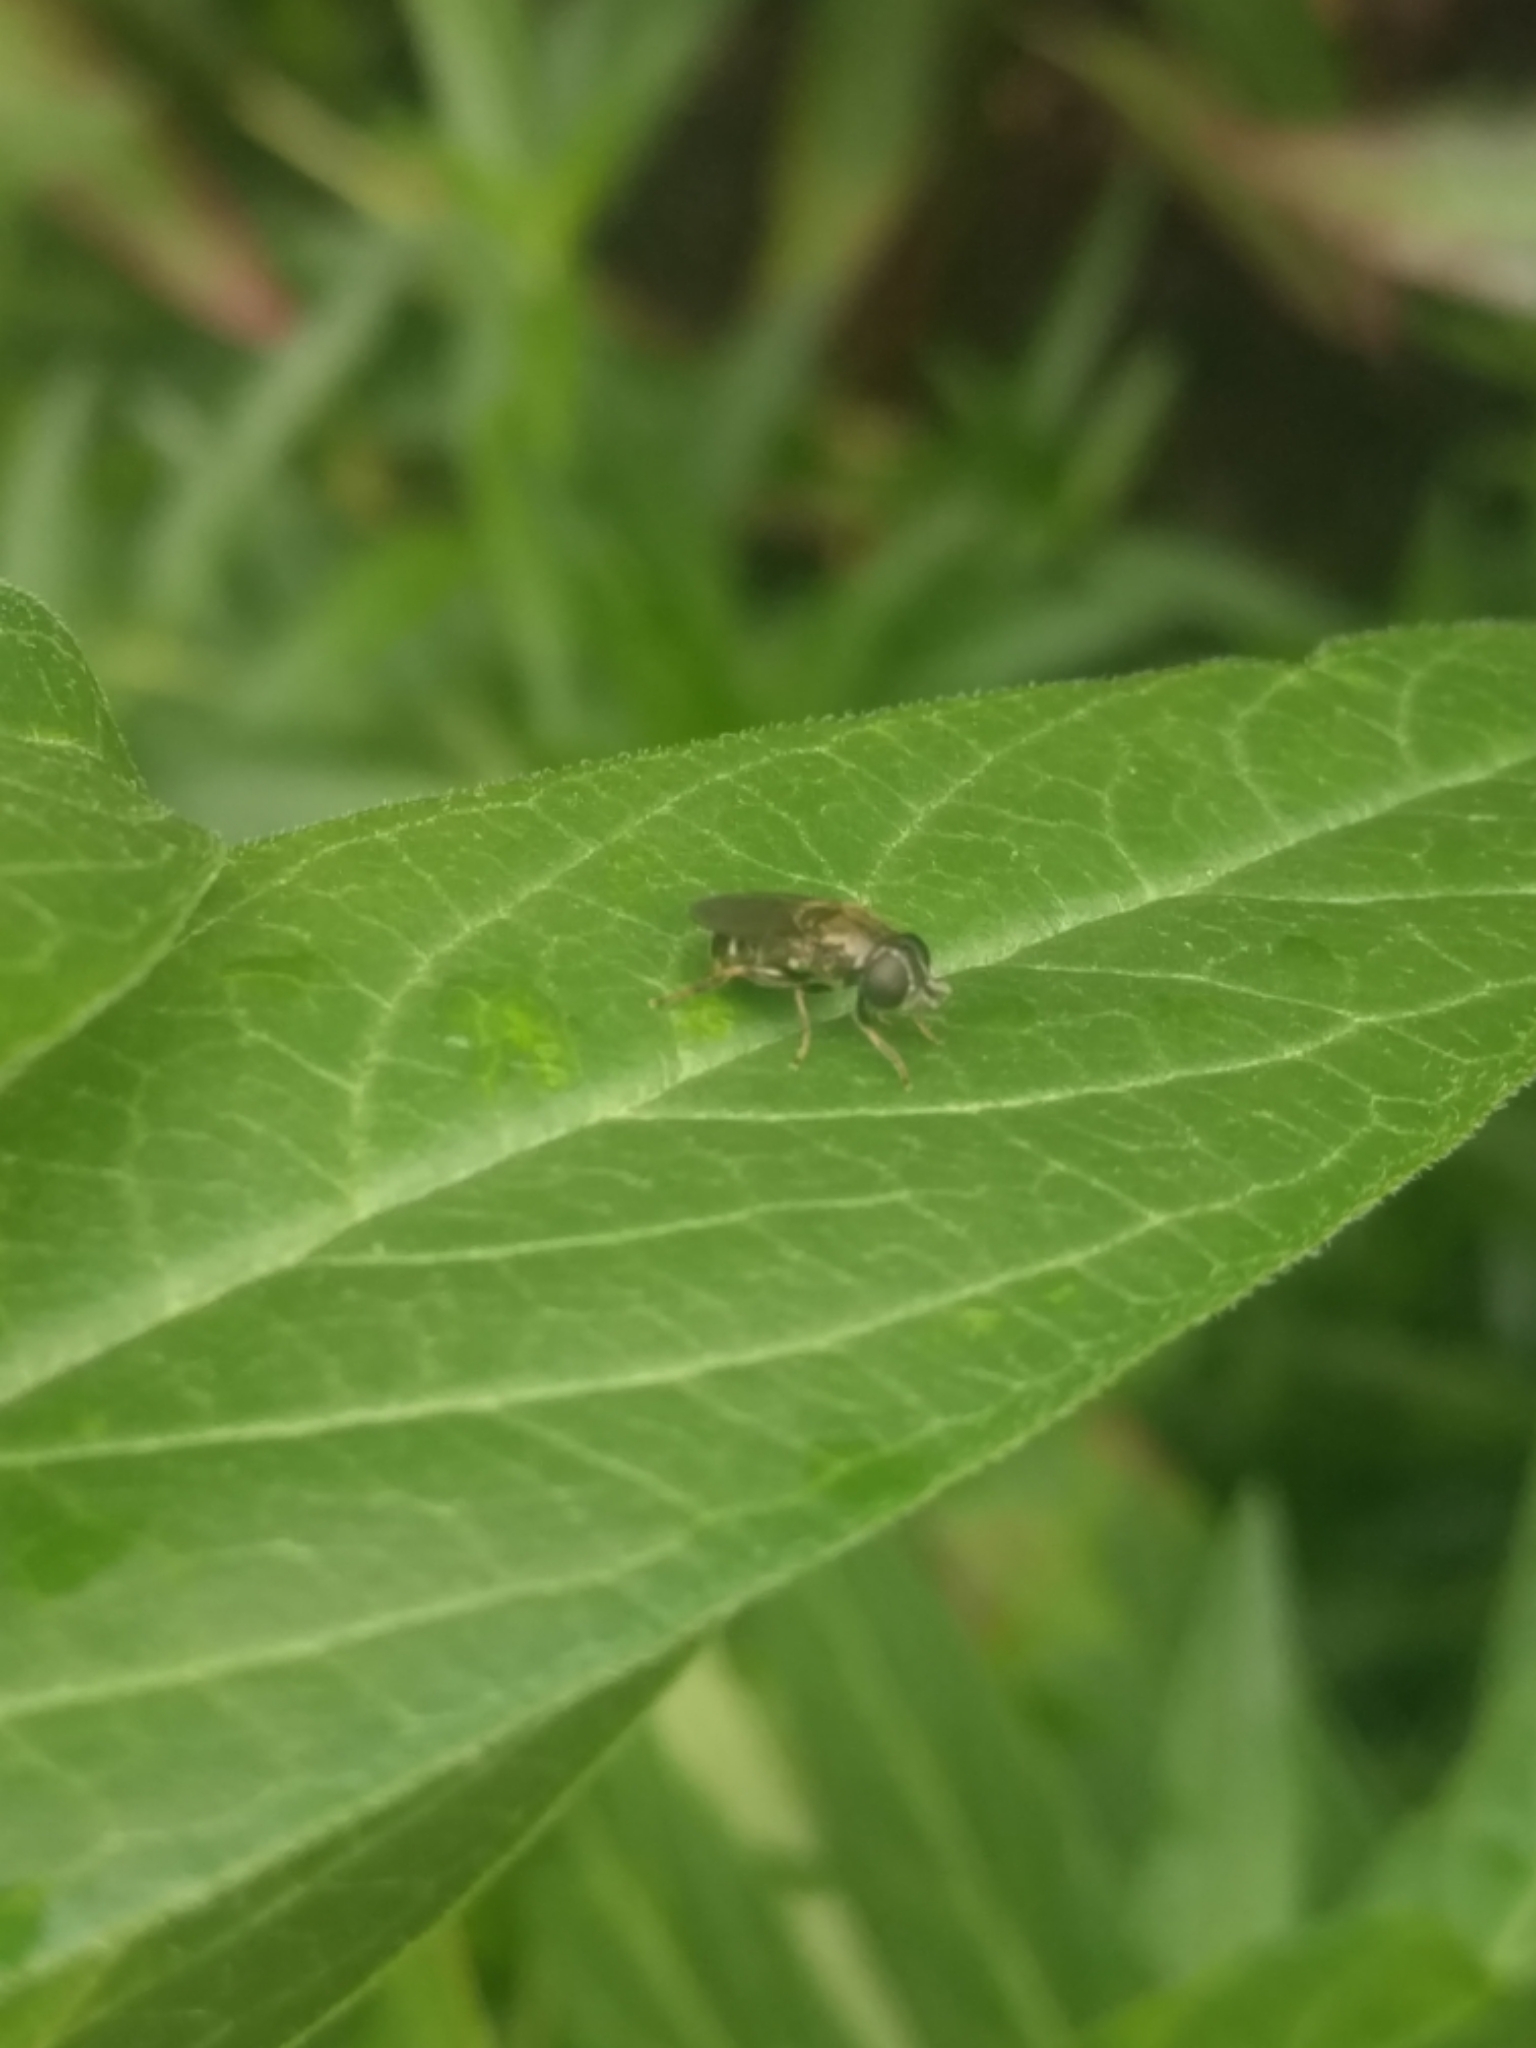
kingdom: Animalia
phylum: Arthropoda
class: Insecta
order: Diptera
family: Syrphidae
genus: Eumerus
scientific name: Eumerus
